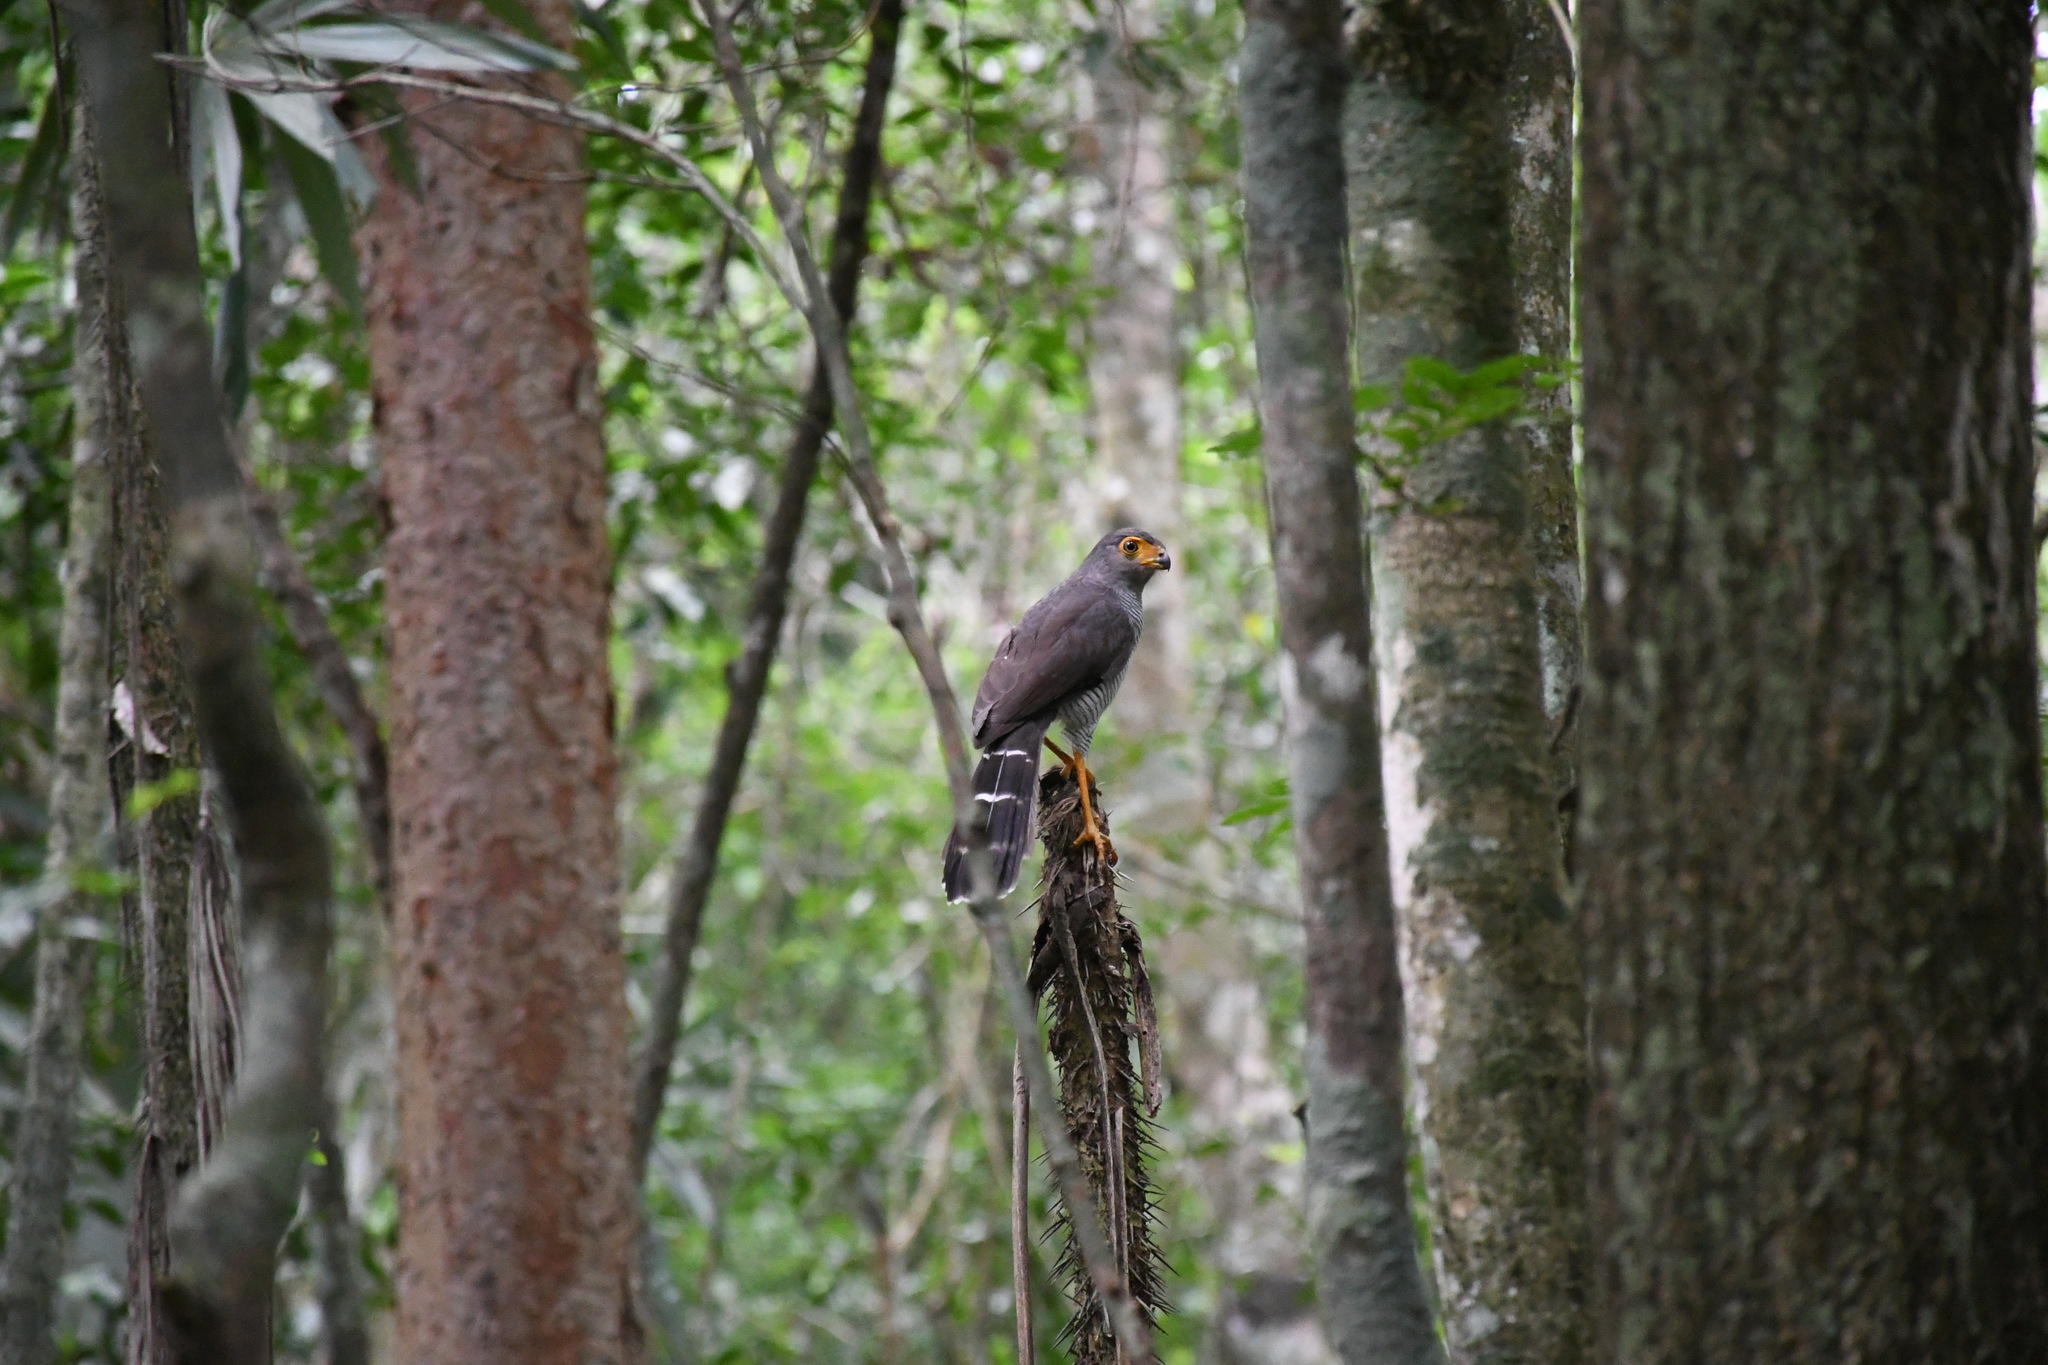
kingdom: Animalia
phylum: Chordata
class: Aves
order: Falconiformes
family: Falconidae
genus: Micrastur
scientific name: Micrastur ruficollis
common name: Barred forest-falcon
